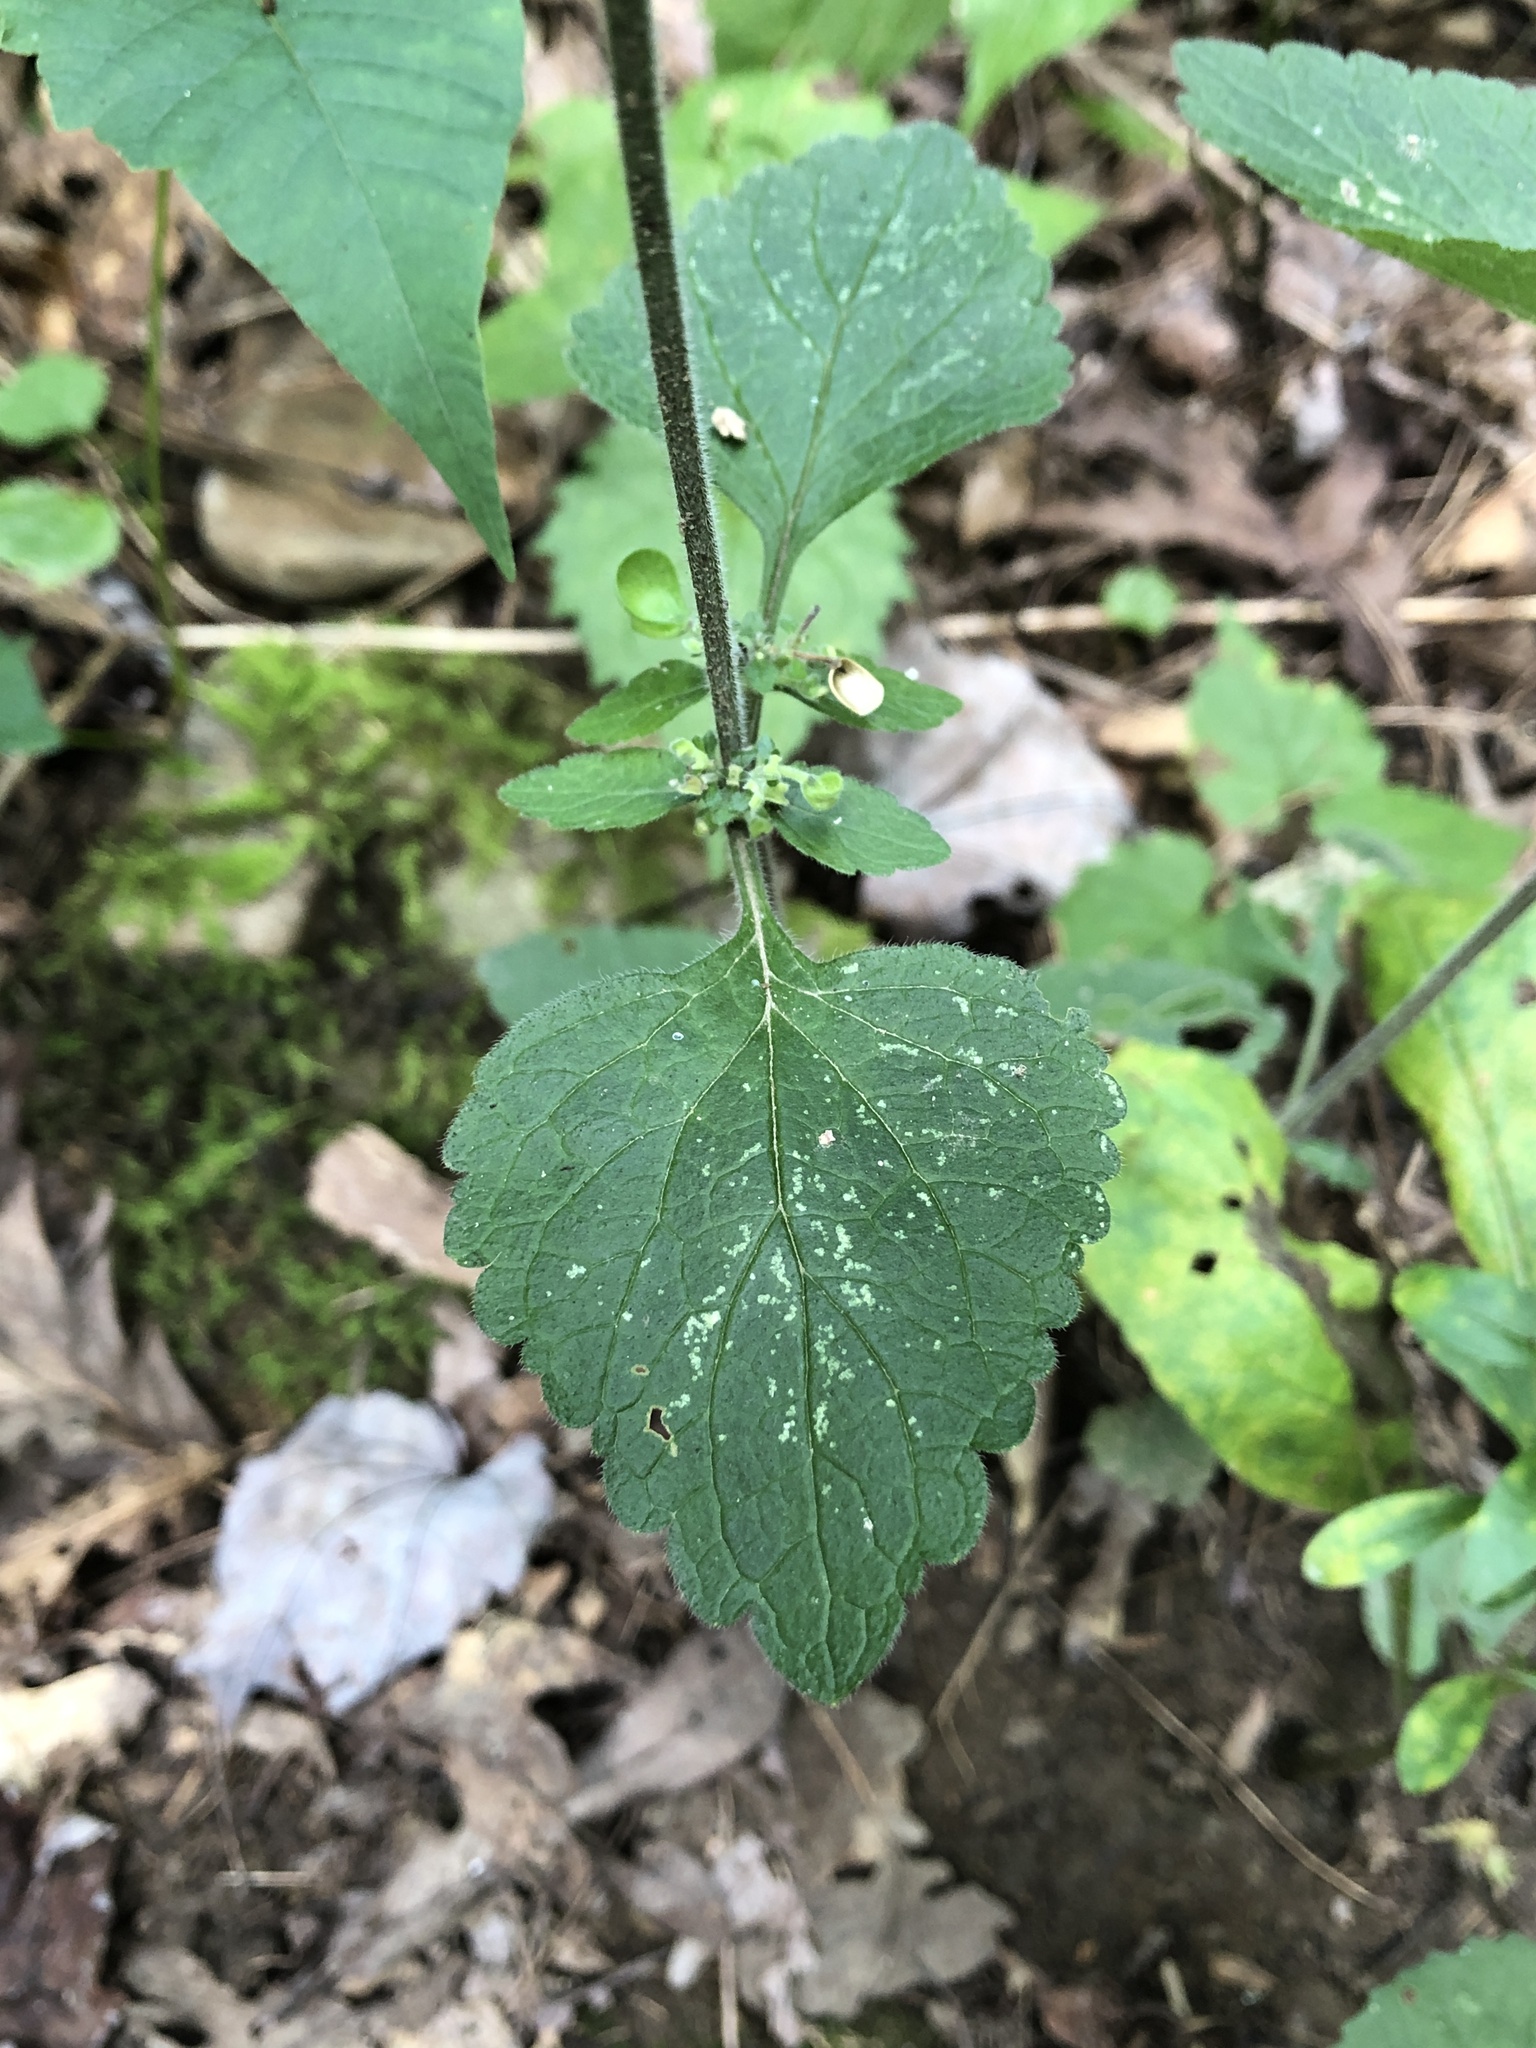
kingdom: Plantae
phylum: Tracheophyta
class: Magnoliopsida
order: Lamiales
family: Lamiaceae
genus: Scutellaria
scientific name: Scutellaria elliptica
